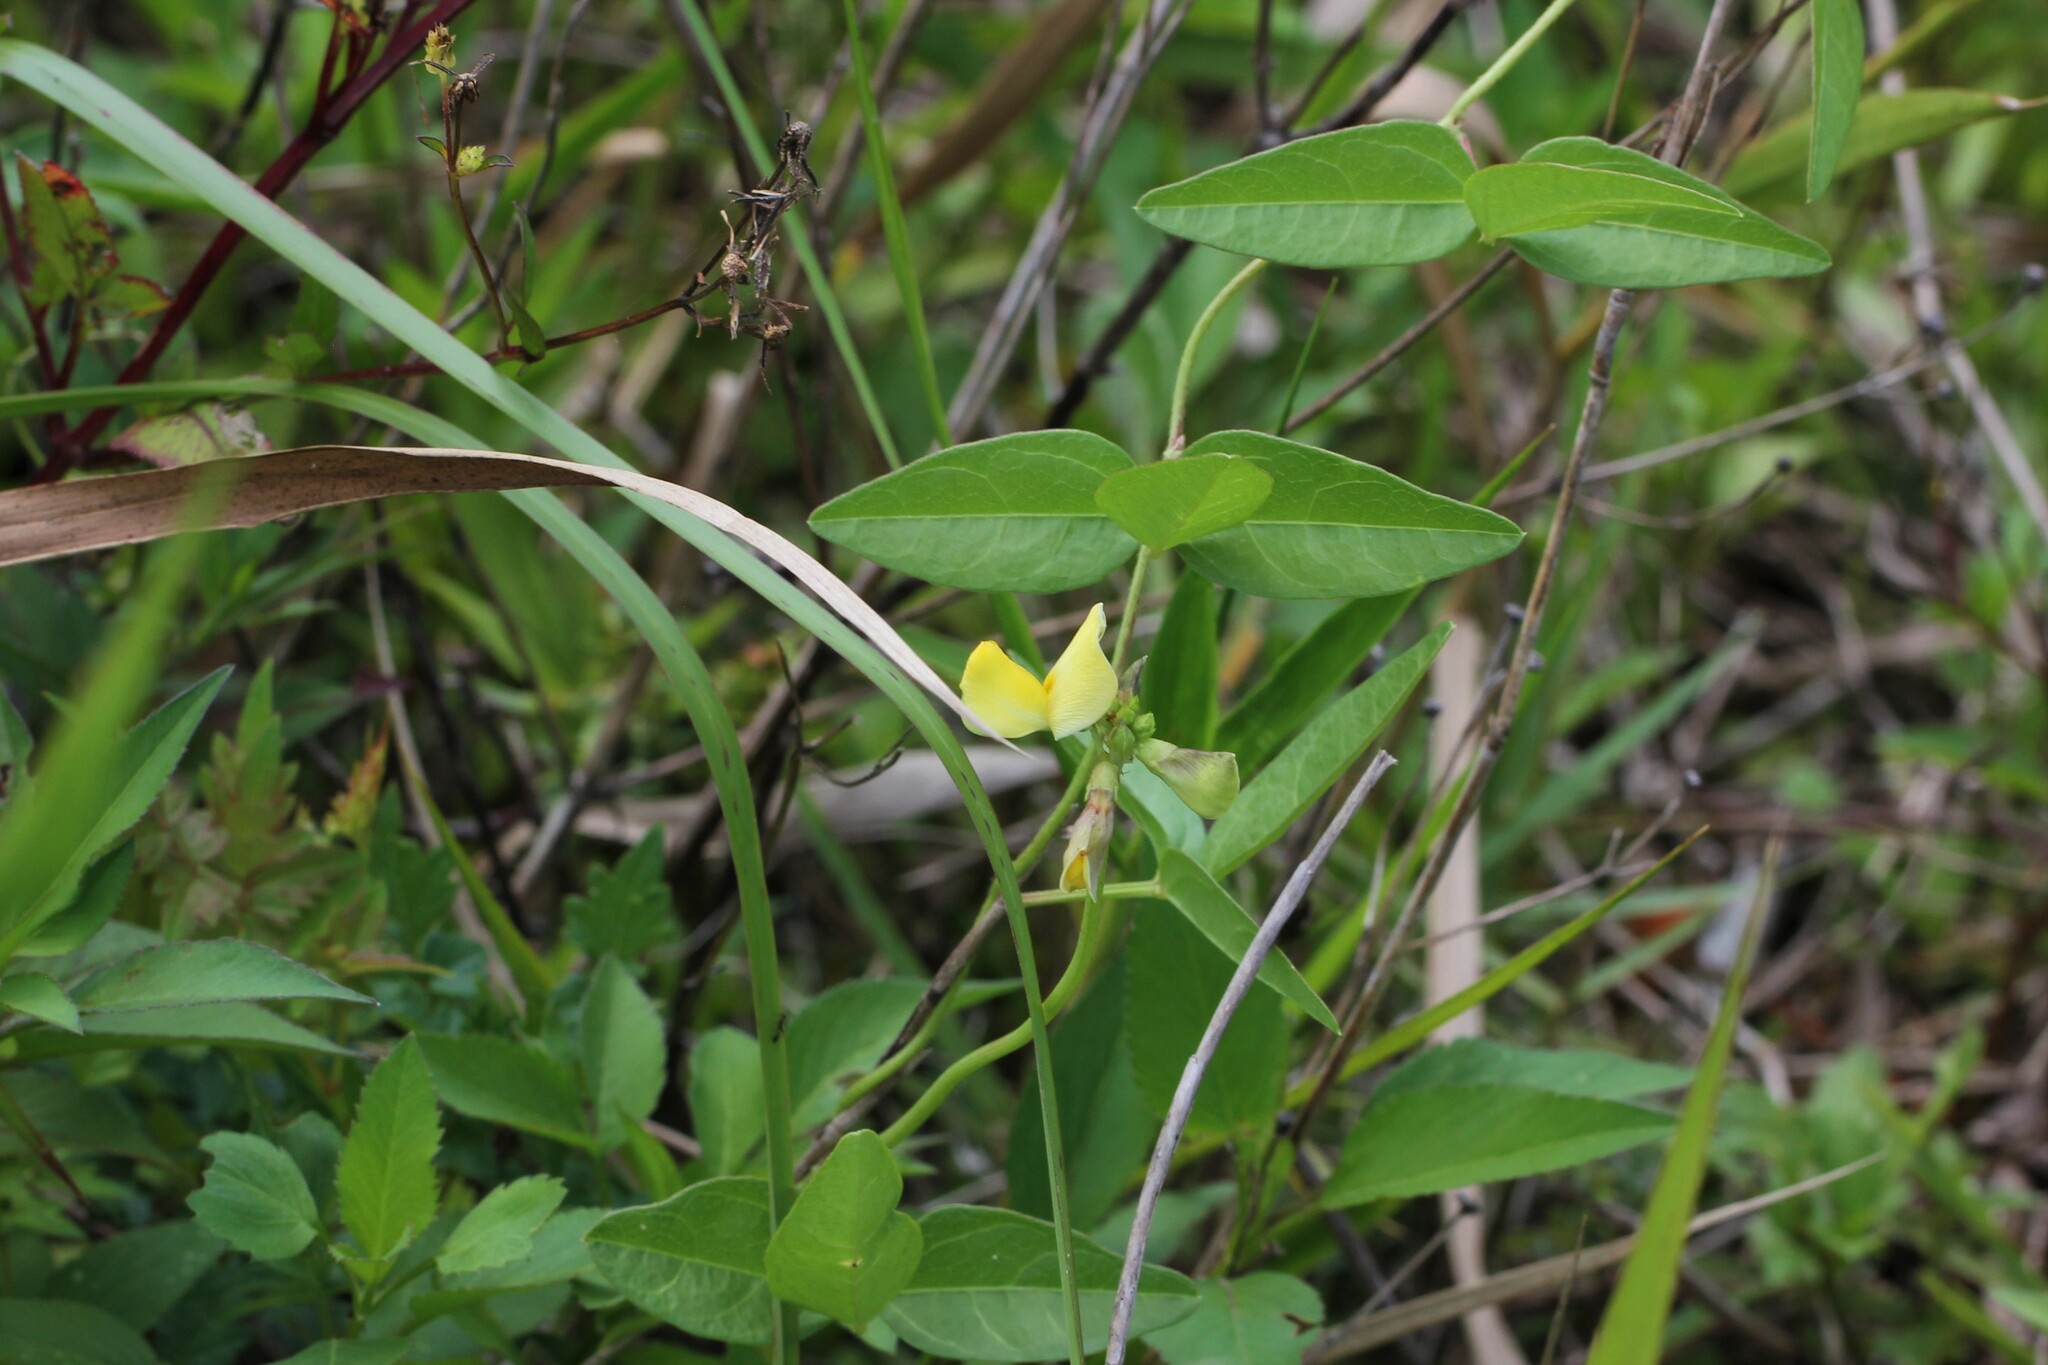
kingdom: Plantae
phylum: Tracheophyta
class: Magnoliopsida
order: Fabales
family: Fabaceae
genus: Vigna
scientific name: Vigna luteola
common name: Hairypod cowpea
